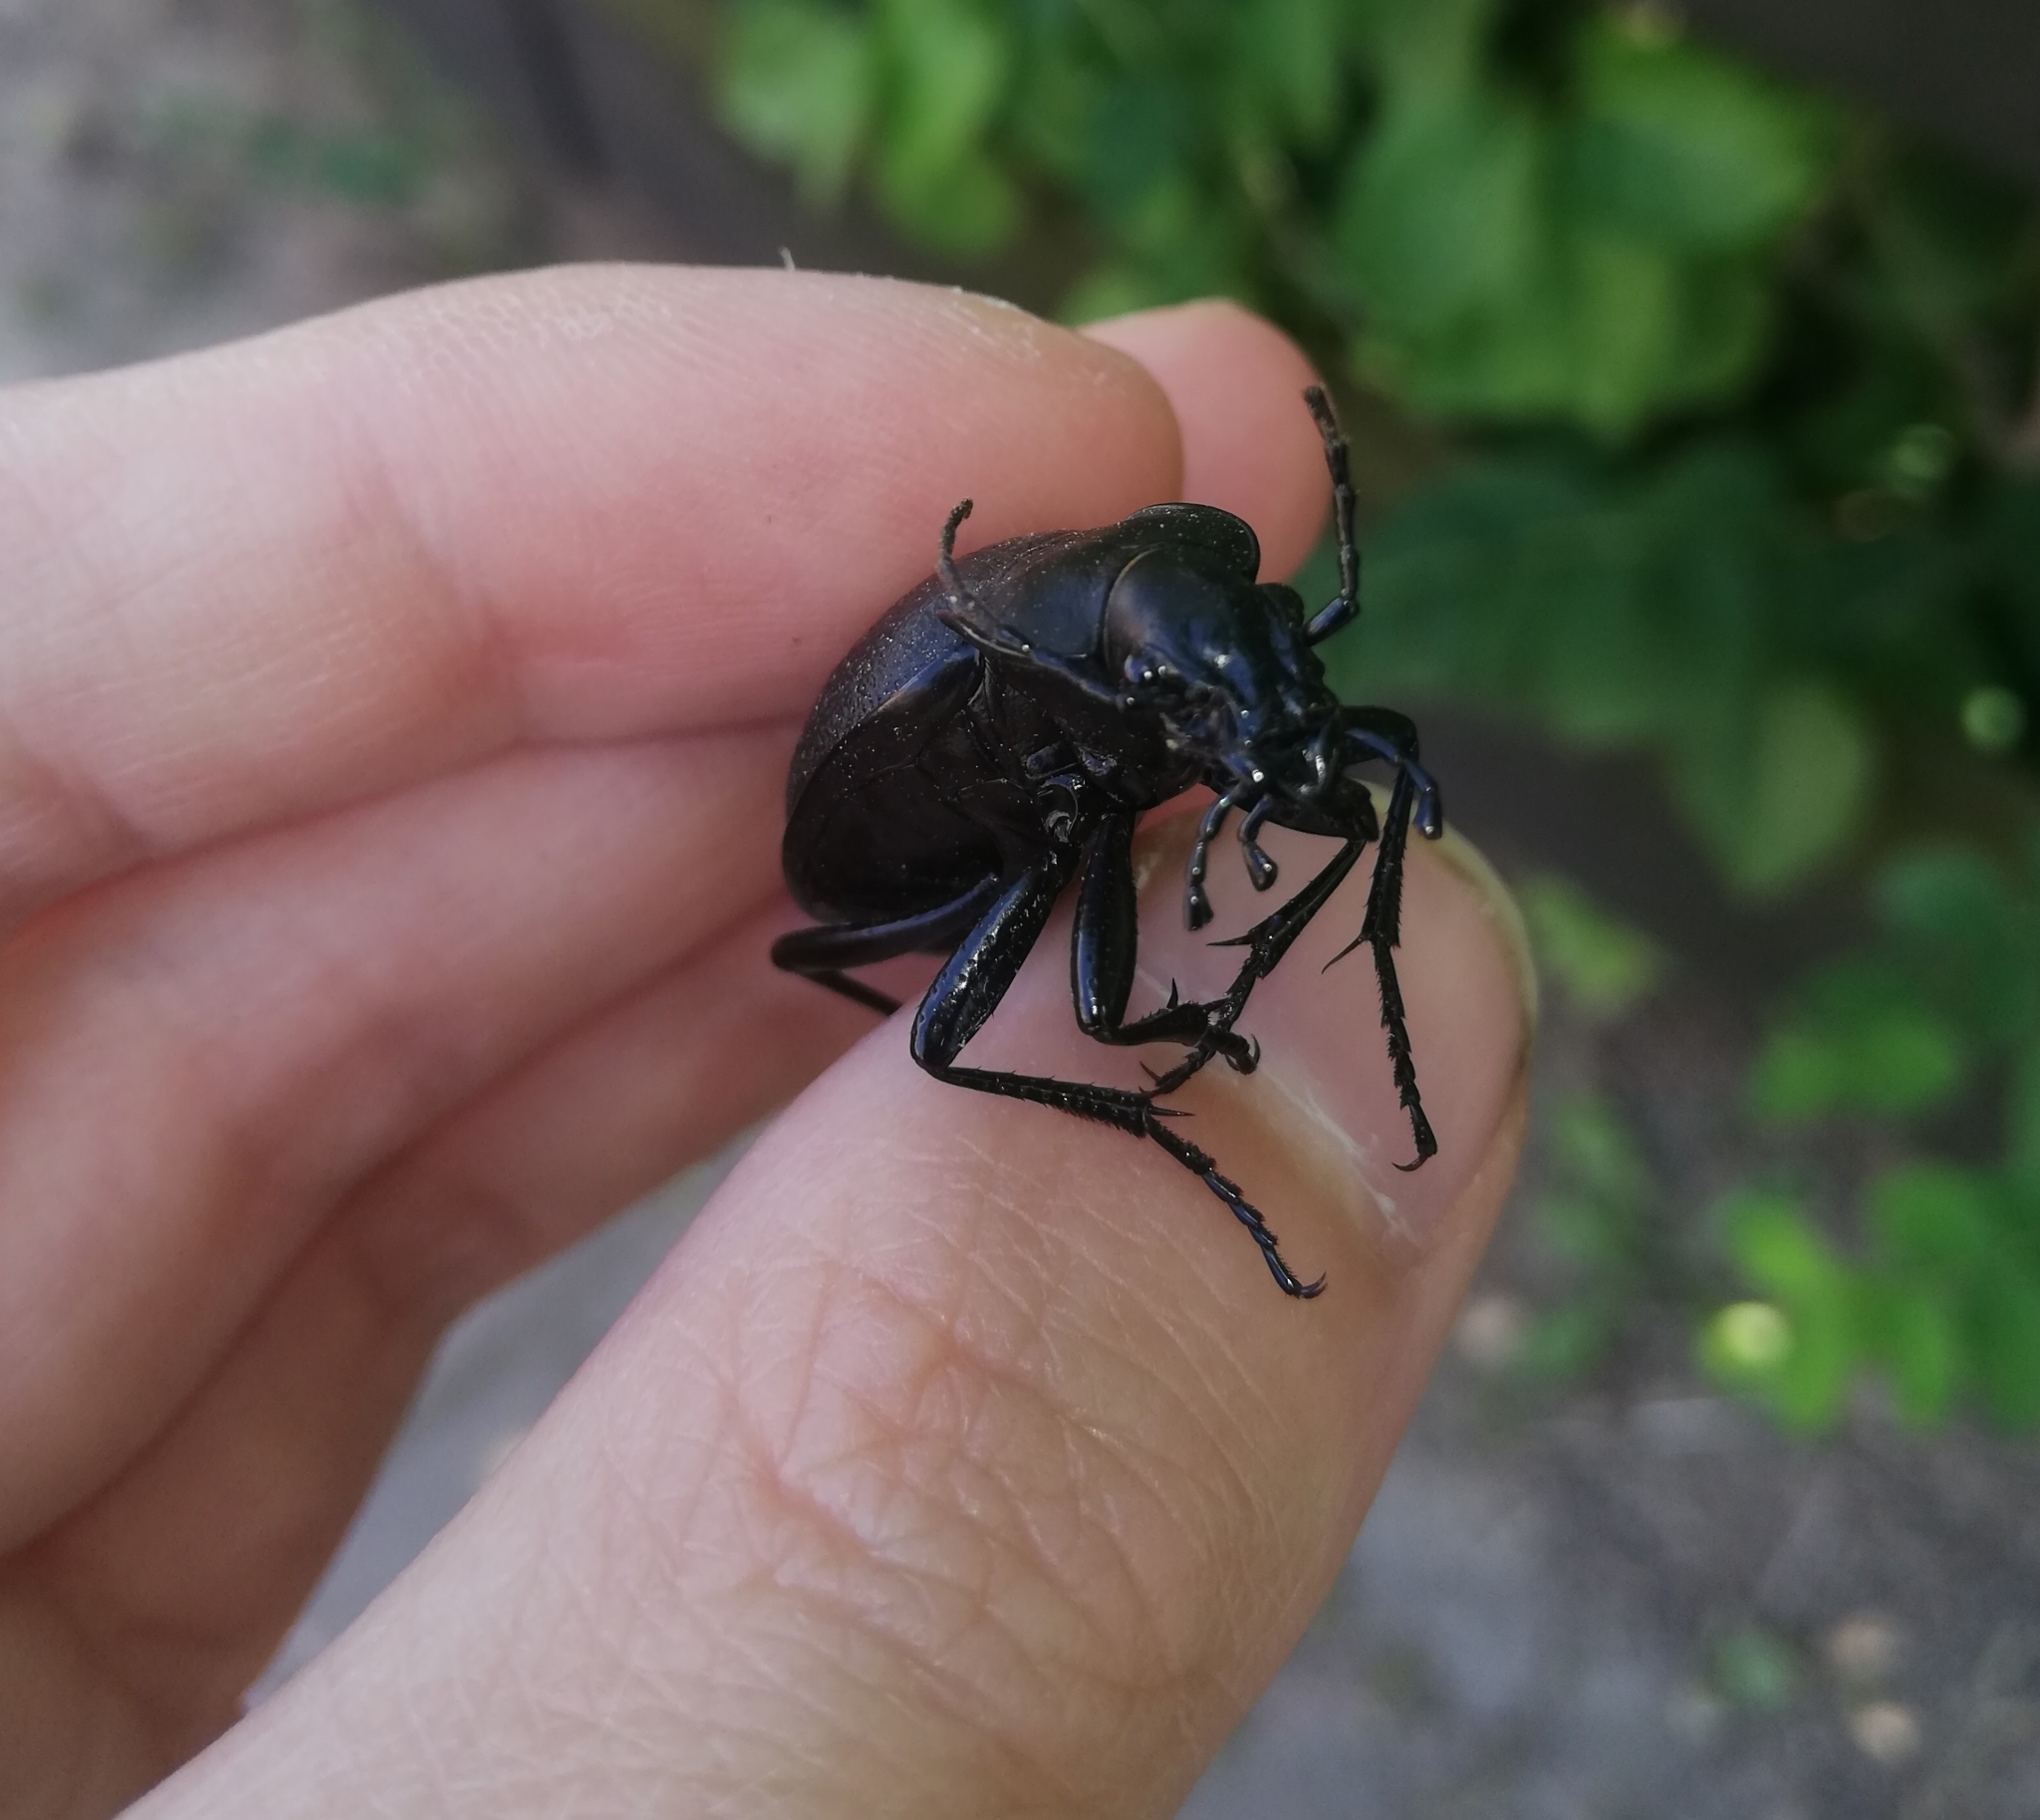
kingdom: Animalia
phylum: Arthropoda
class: Insecta
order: Coleoptera
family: Carabidae
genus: Carabus
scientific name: Carabus coriaceus
